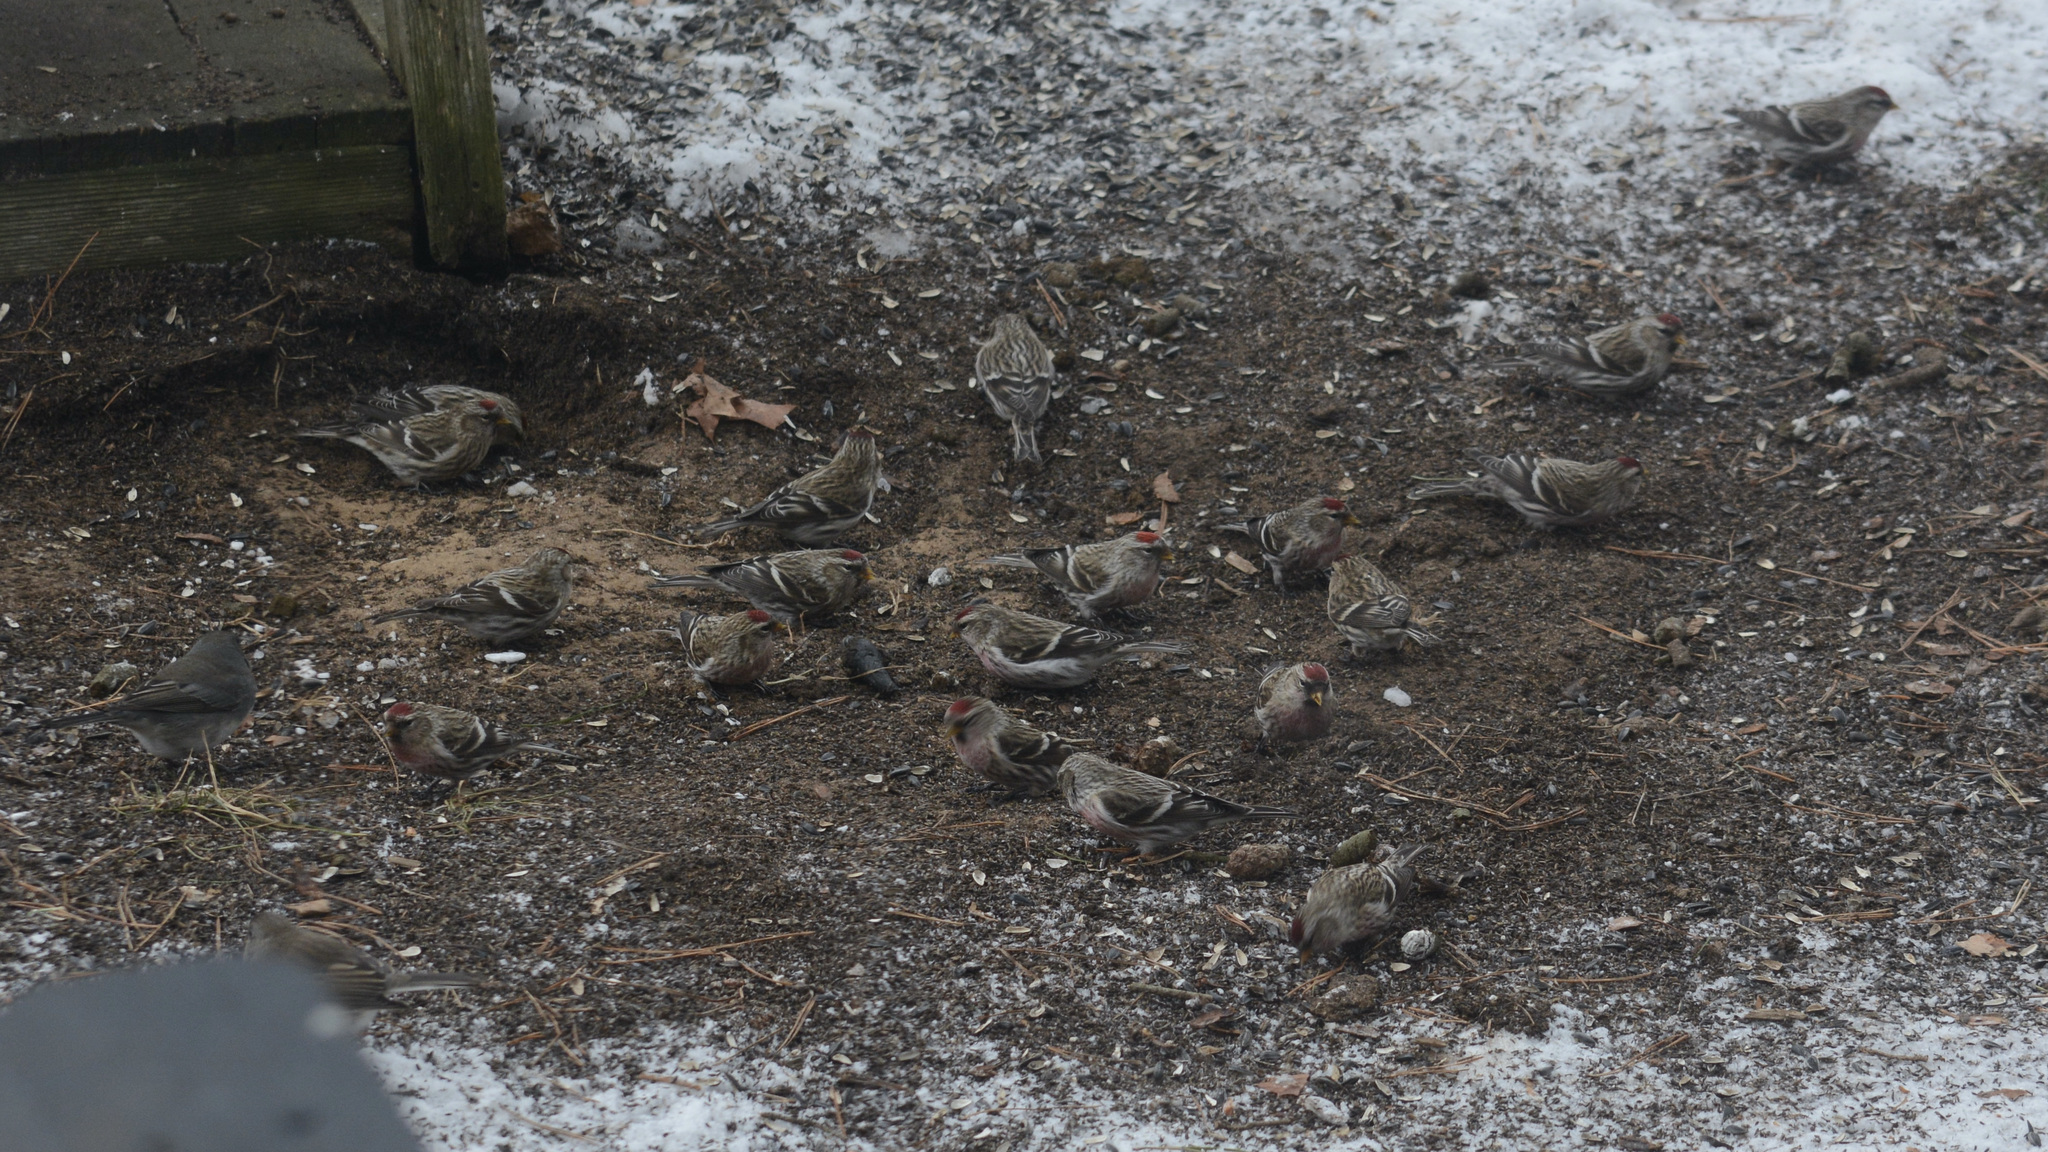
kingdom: Animalia
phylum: Chordata
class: Aves
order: Passeriformes
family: Fringillidae
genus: Acanthis
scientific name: Acanthis flammea
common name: Common redpoll
